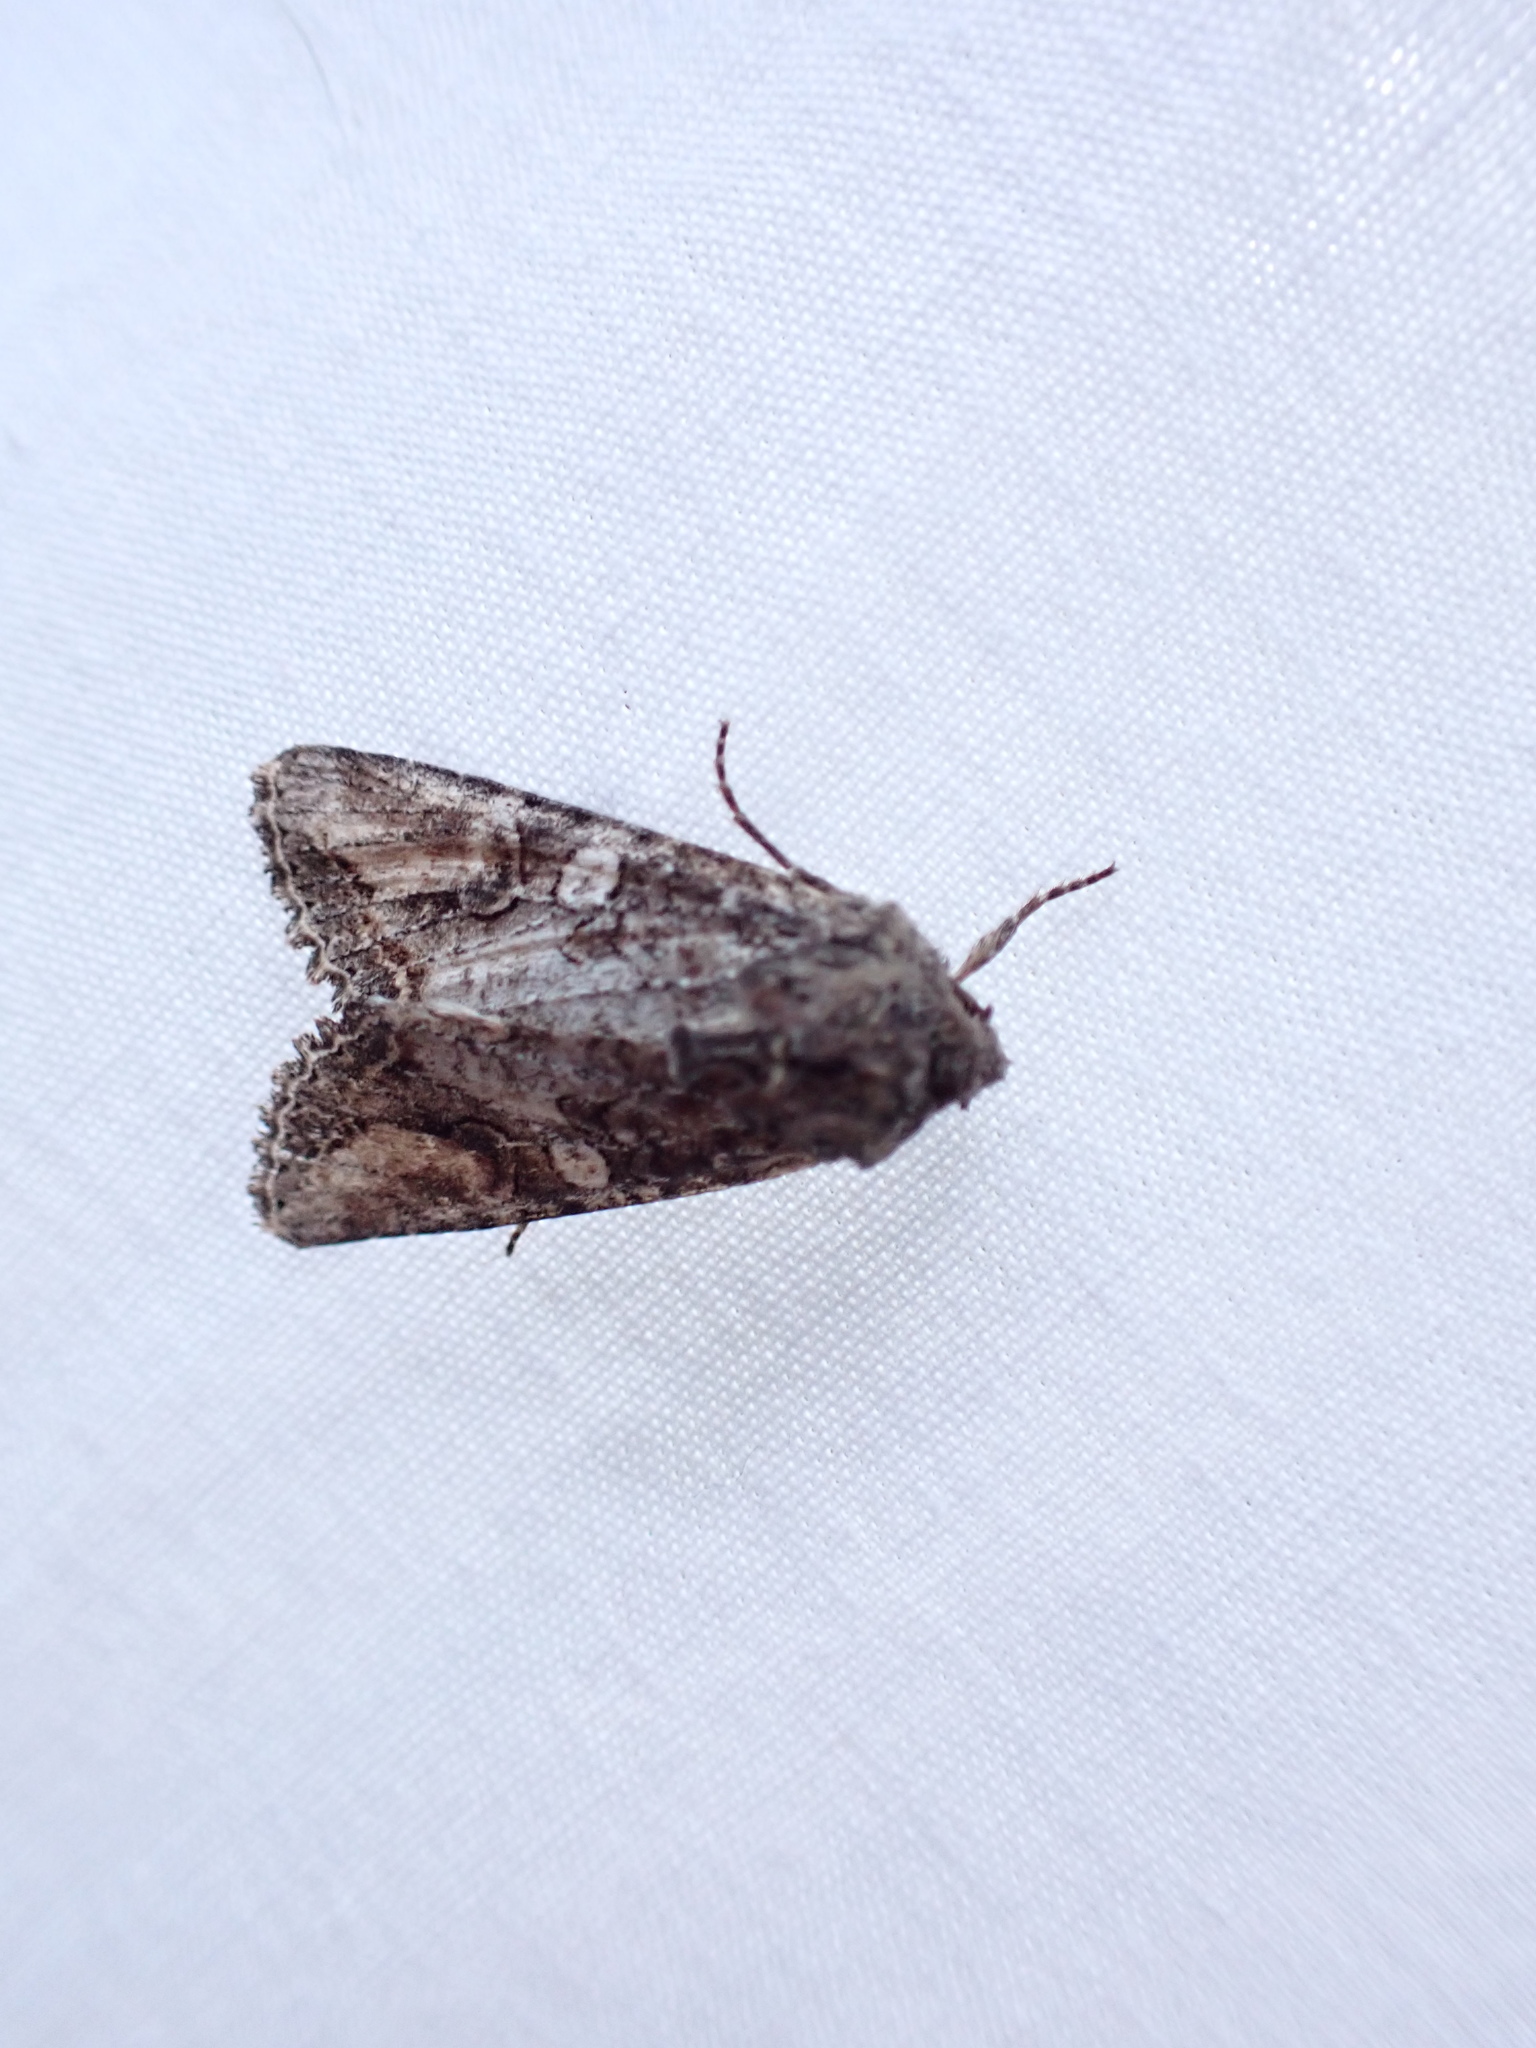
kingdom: Animalia
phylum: Arthropoda
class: Insecta
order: Lepidoptera
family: Noctuidae
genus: Egira
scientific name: Egira perlubens
